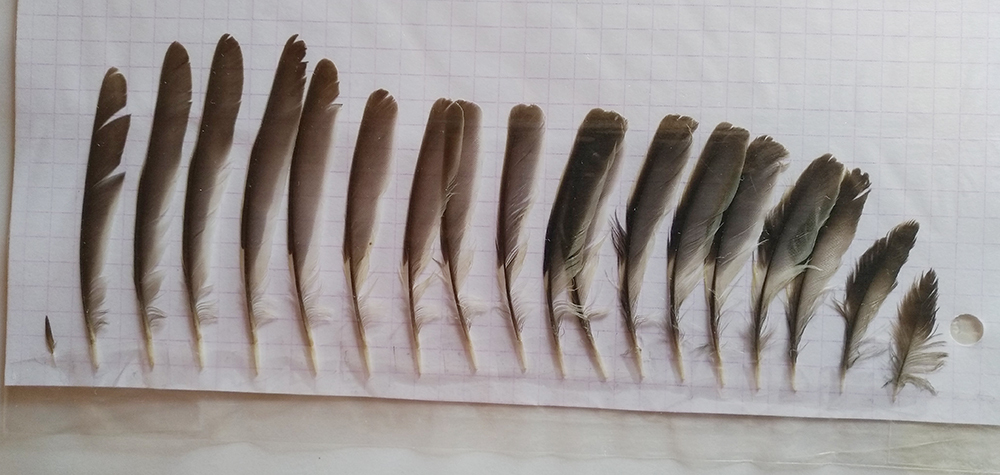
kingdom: Animalia
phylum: Chordata
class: Aves
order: Passeriformes
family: Fringillidae
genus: Fringilla
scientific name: Fringilla coelebs
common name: Common chaffinch
